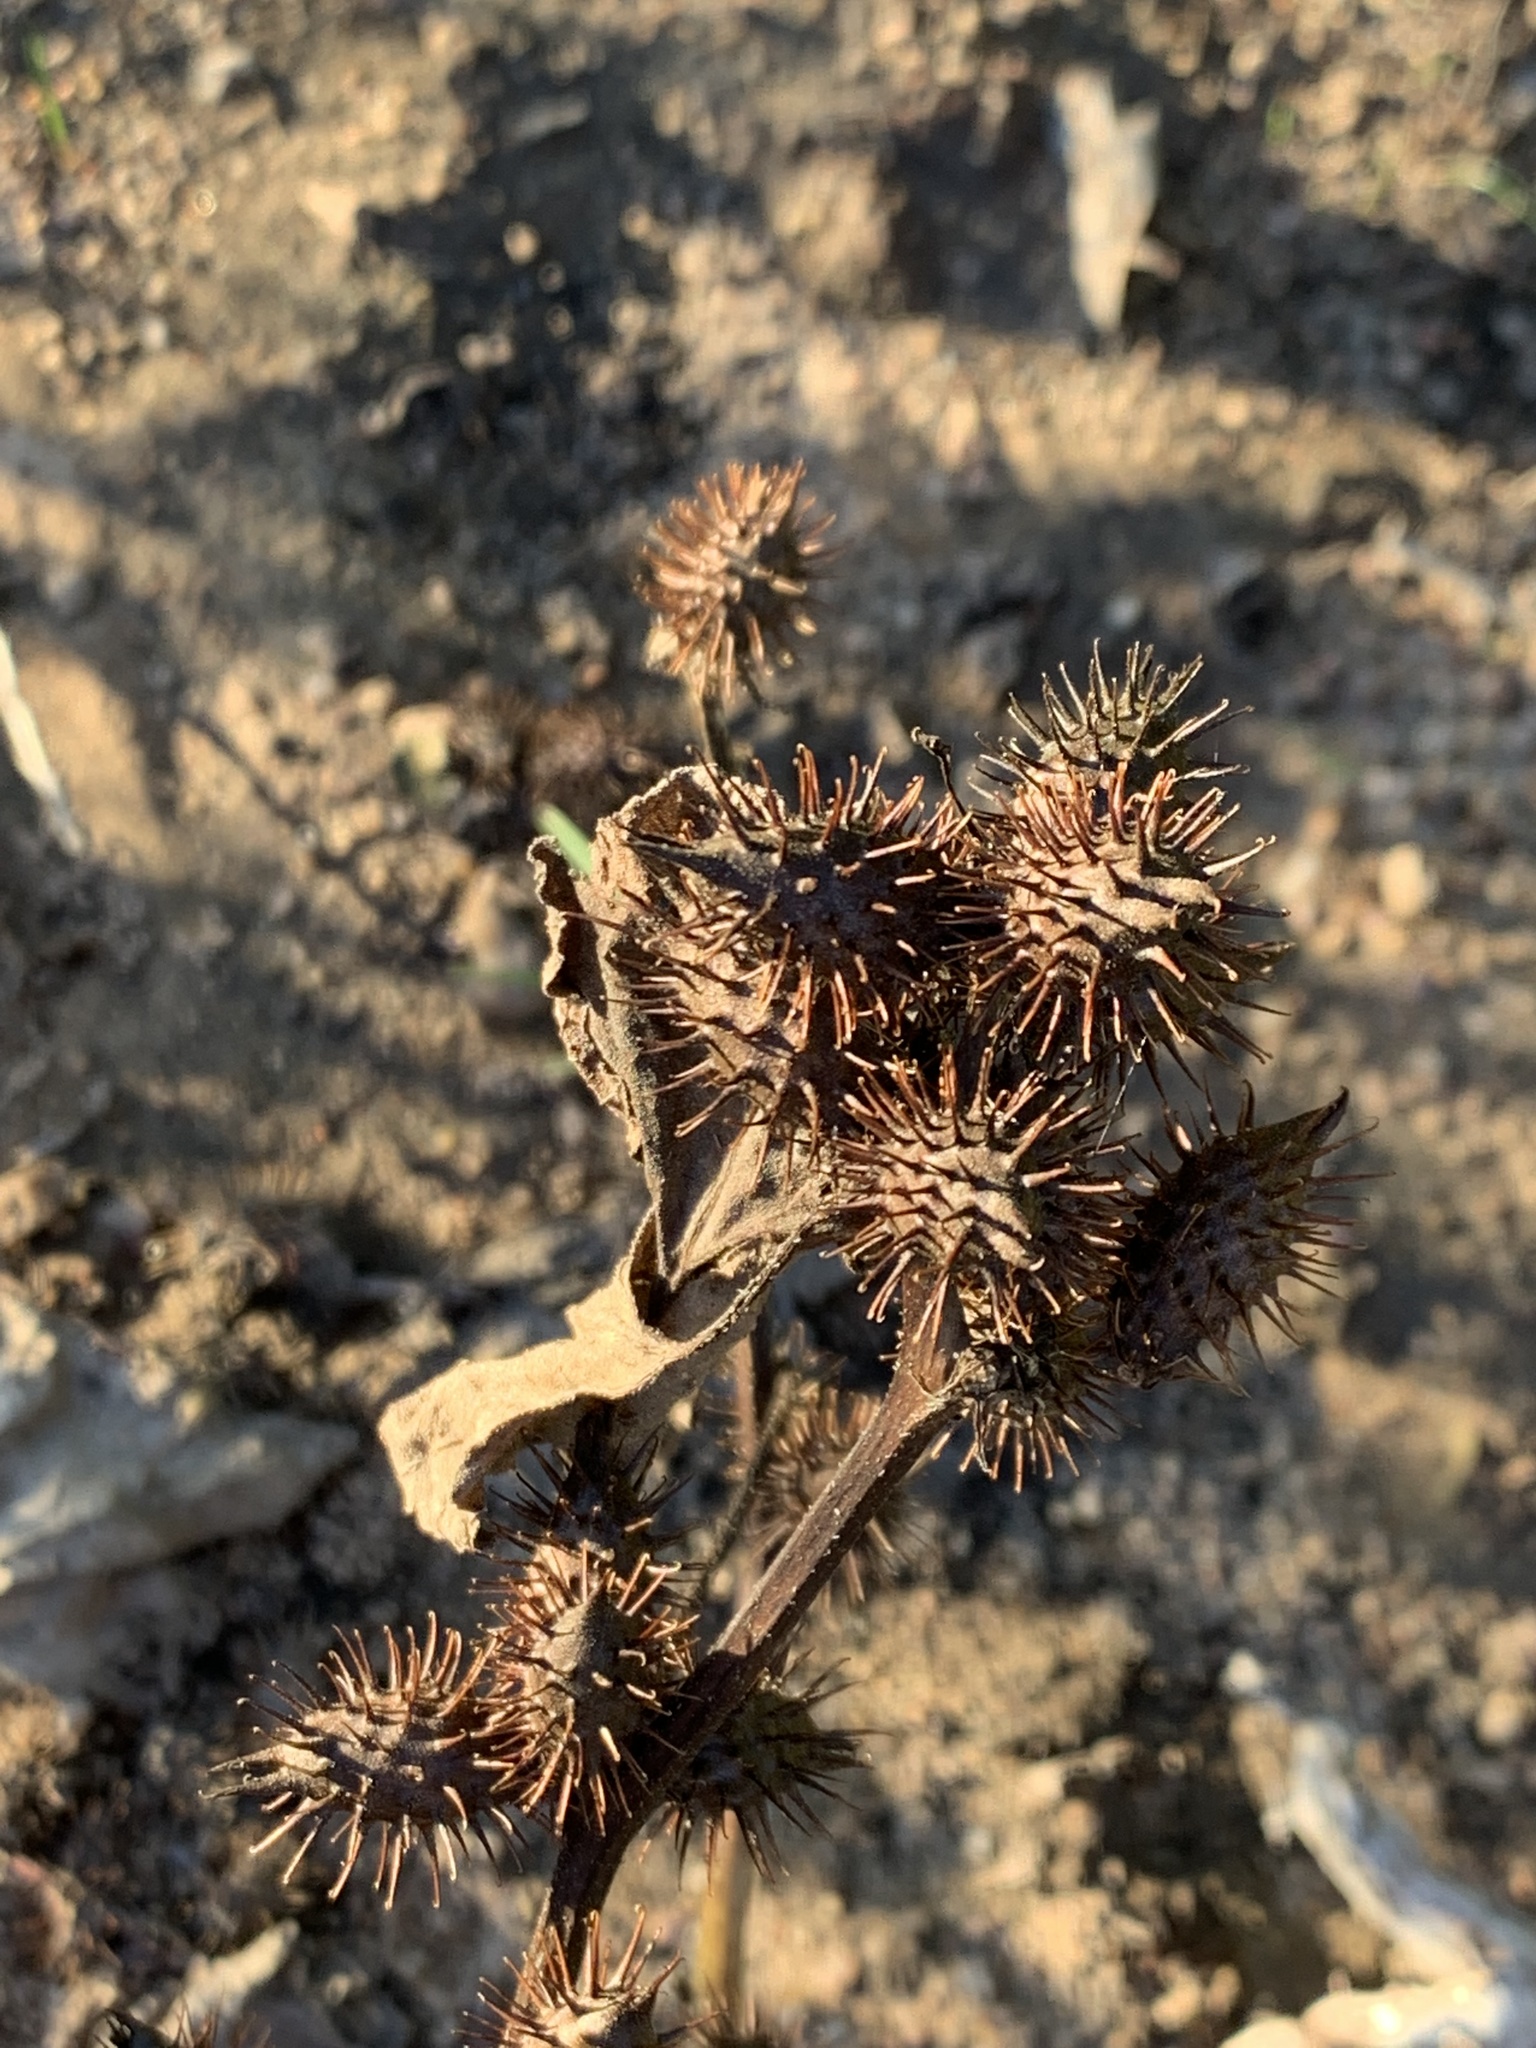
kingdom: Plantae
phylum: Tracheophyta
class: Magnoliopsida
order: Asterales
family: Asteraceae
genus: Xanthium
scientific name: Xanthium strumarium
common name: Rough cocklebur
